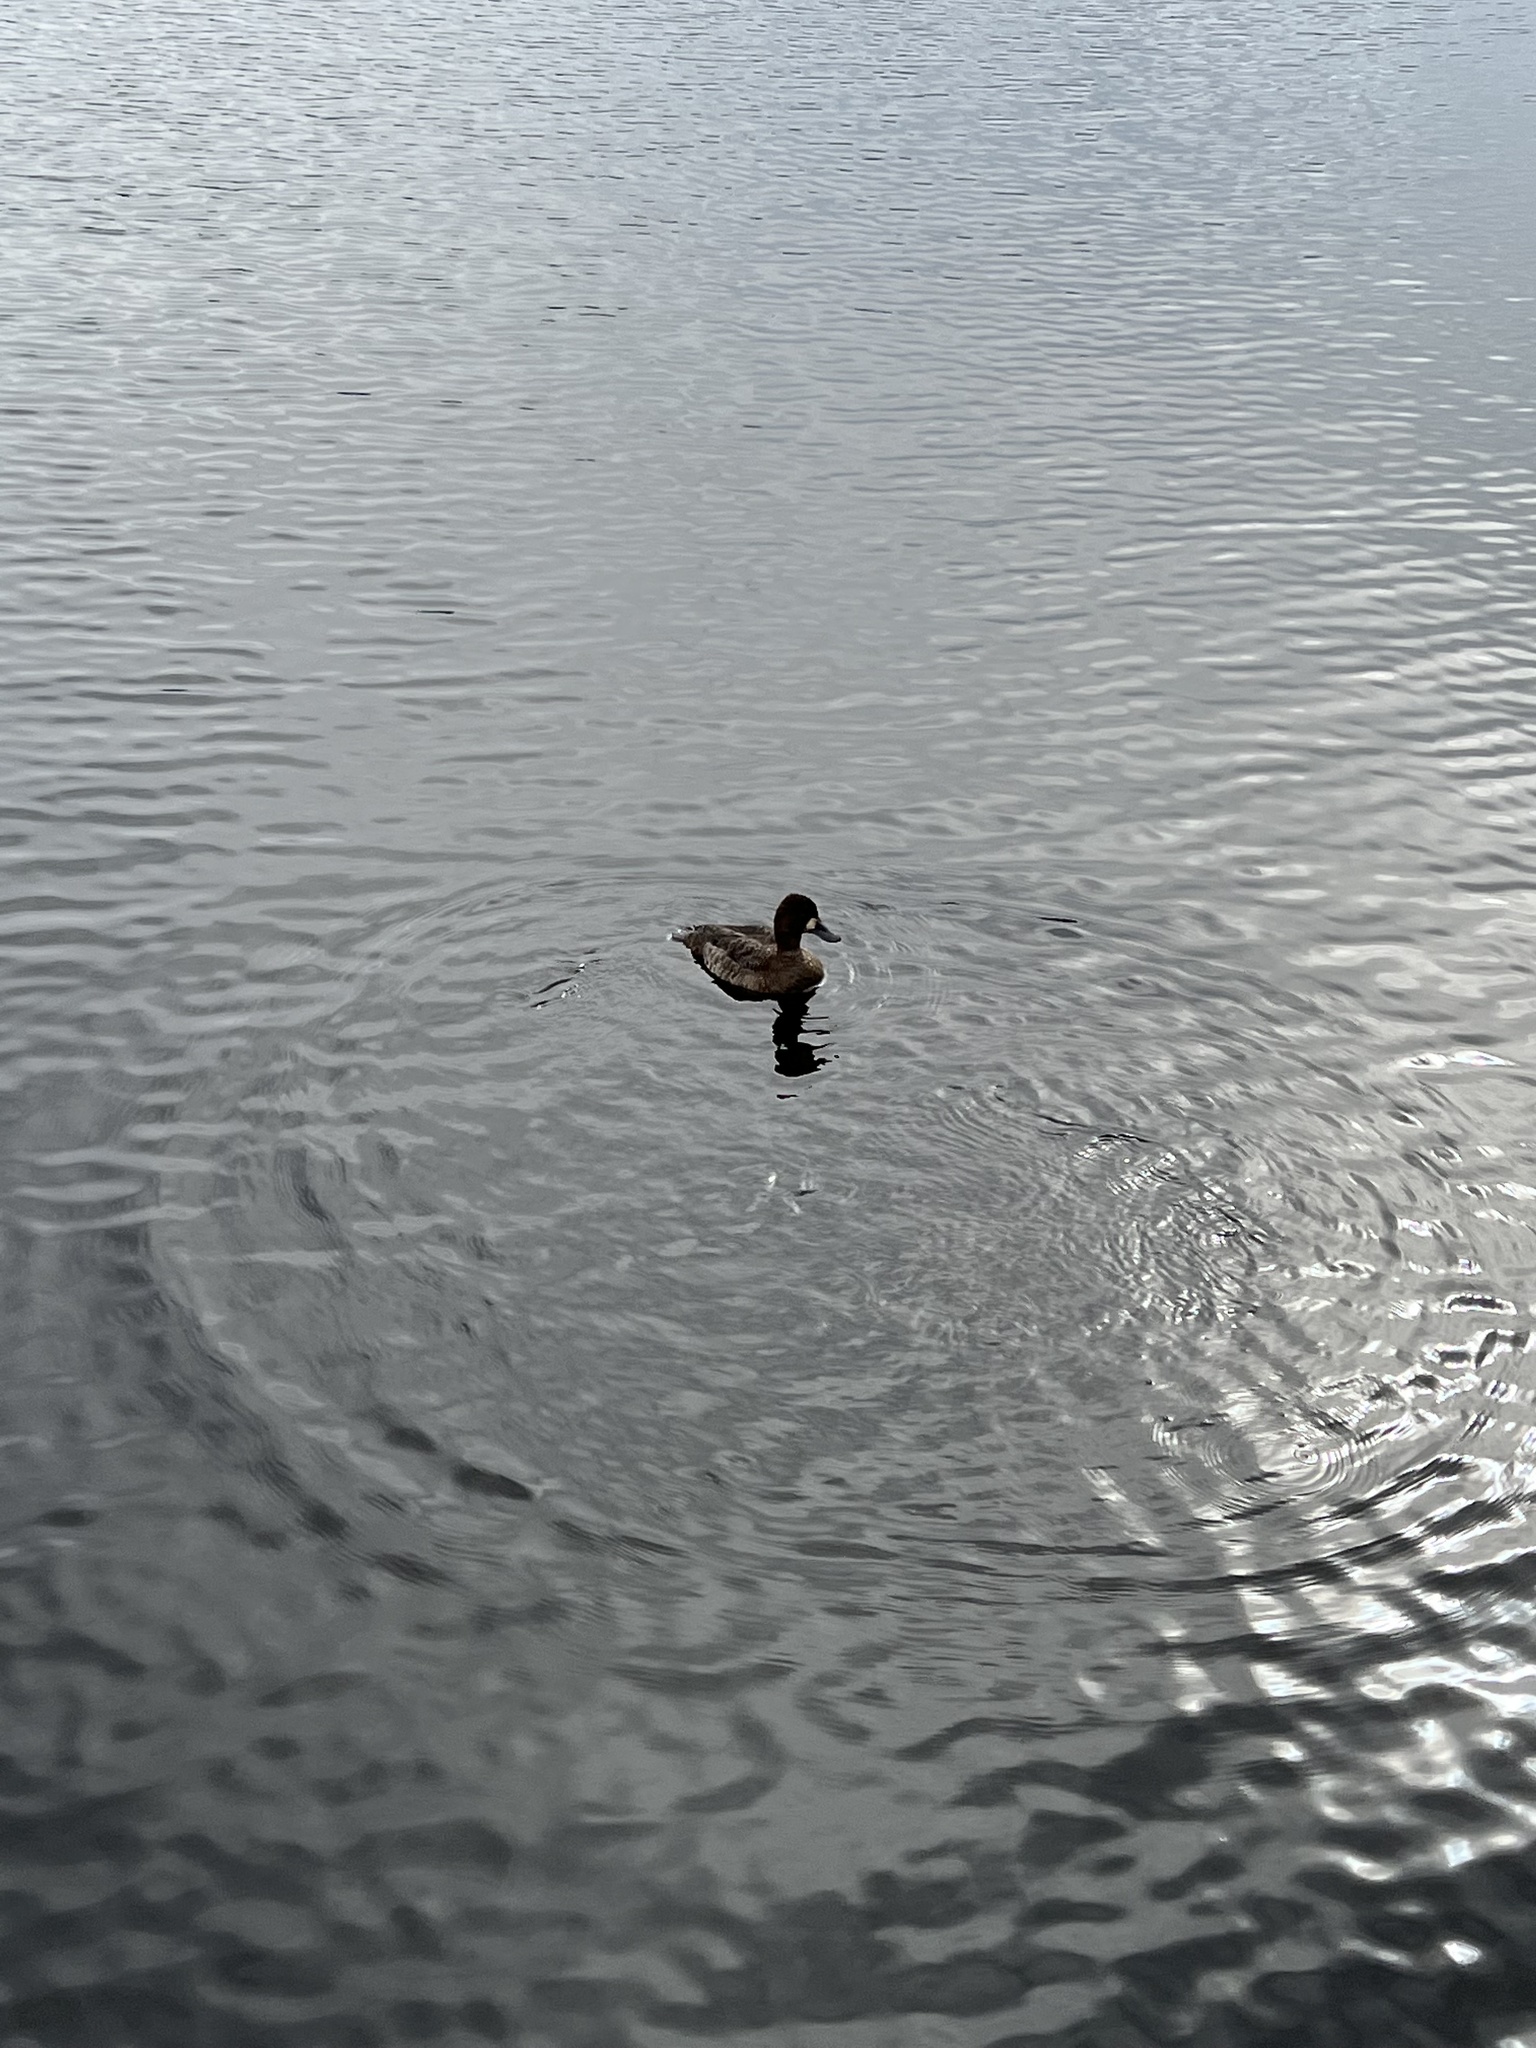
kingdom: Animalia
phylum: Chordata
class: Aves
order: Anseriformes
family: Anatidae
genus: Aythya
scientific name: Aythya affinis
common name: Lesser scaup
